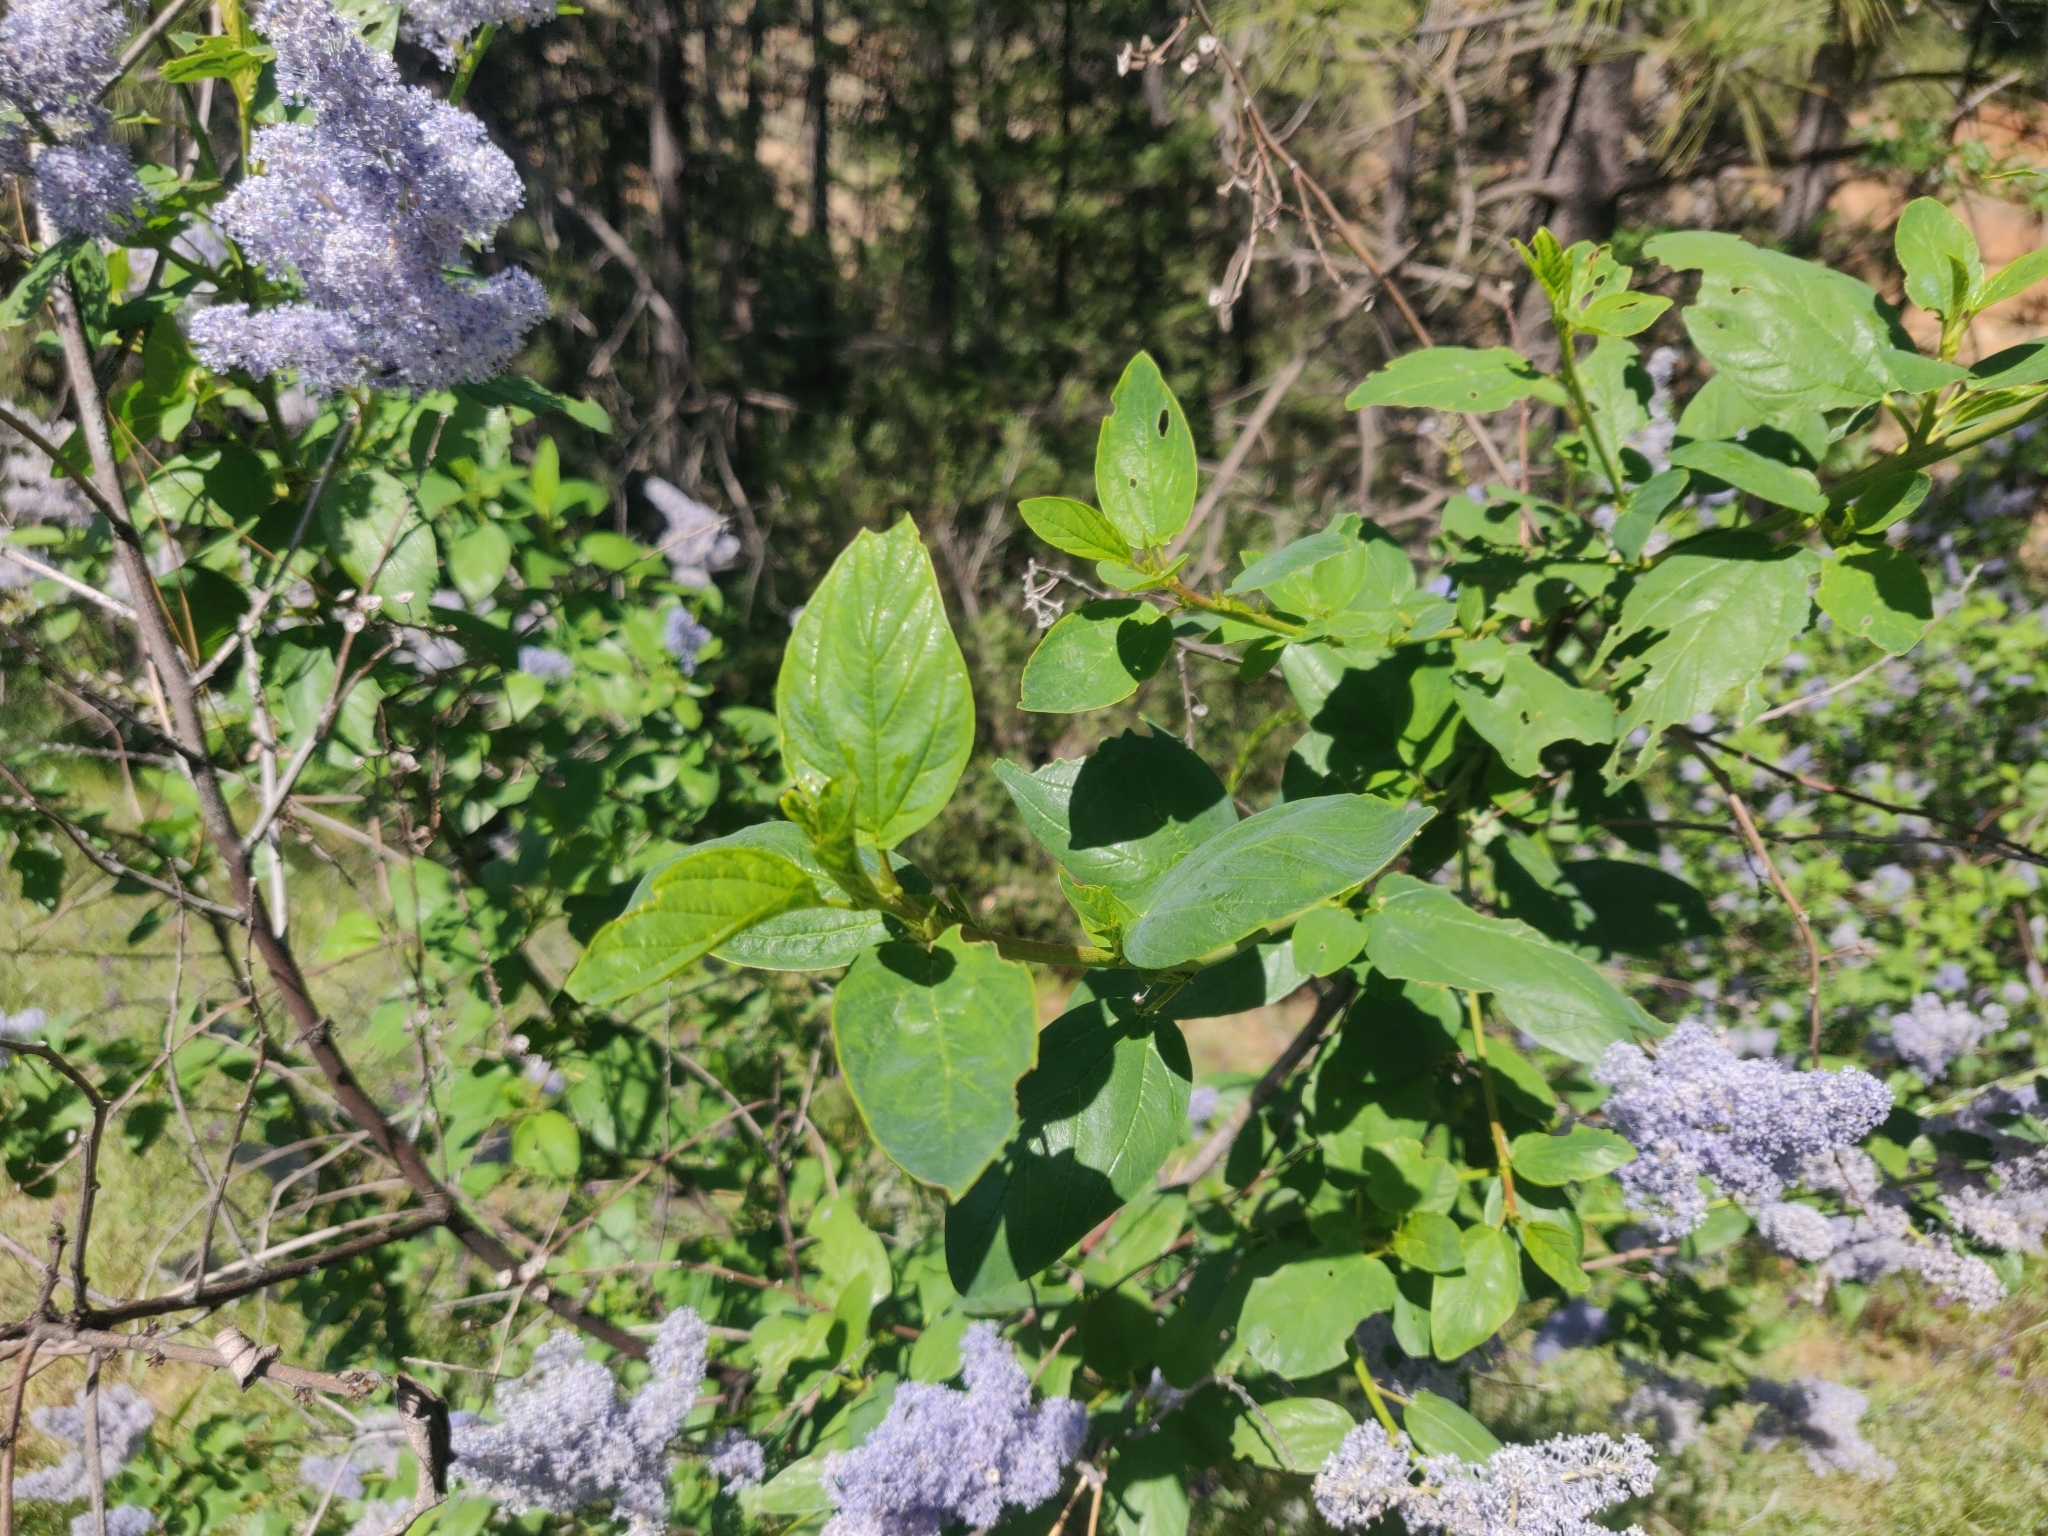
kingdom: Plantae
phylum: Tracheophyta
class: Magnoliopsida
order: Rosales
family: Rhamnaceae
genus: Ceanothus
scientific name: Ceanothus integerrimus
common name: Deerbrush ceanothus
